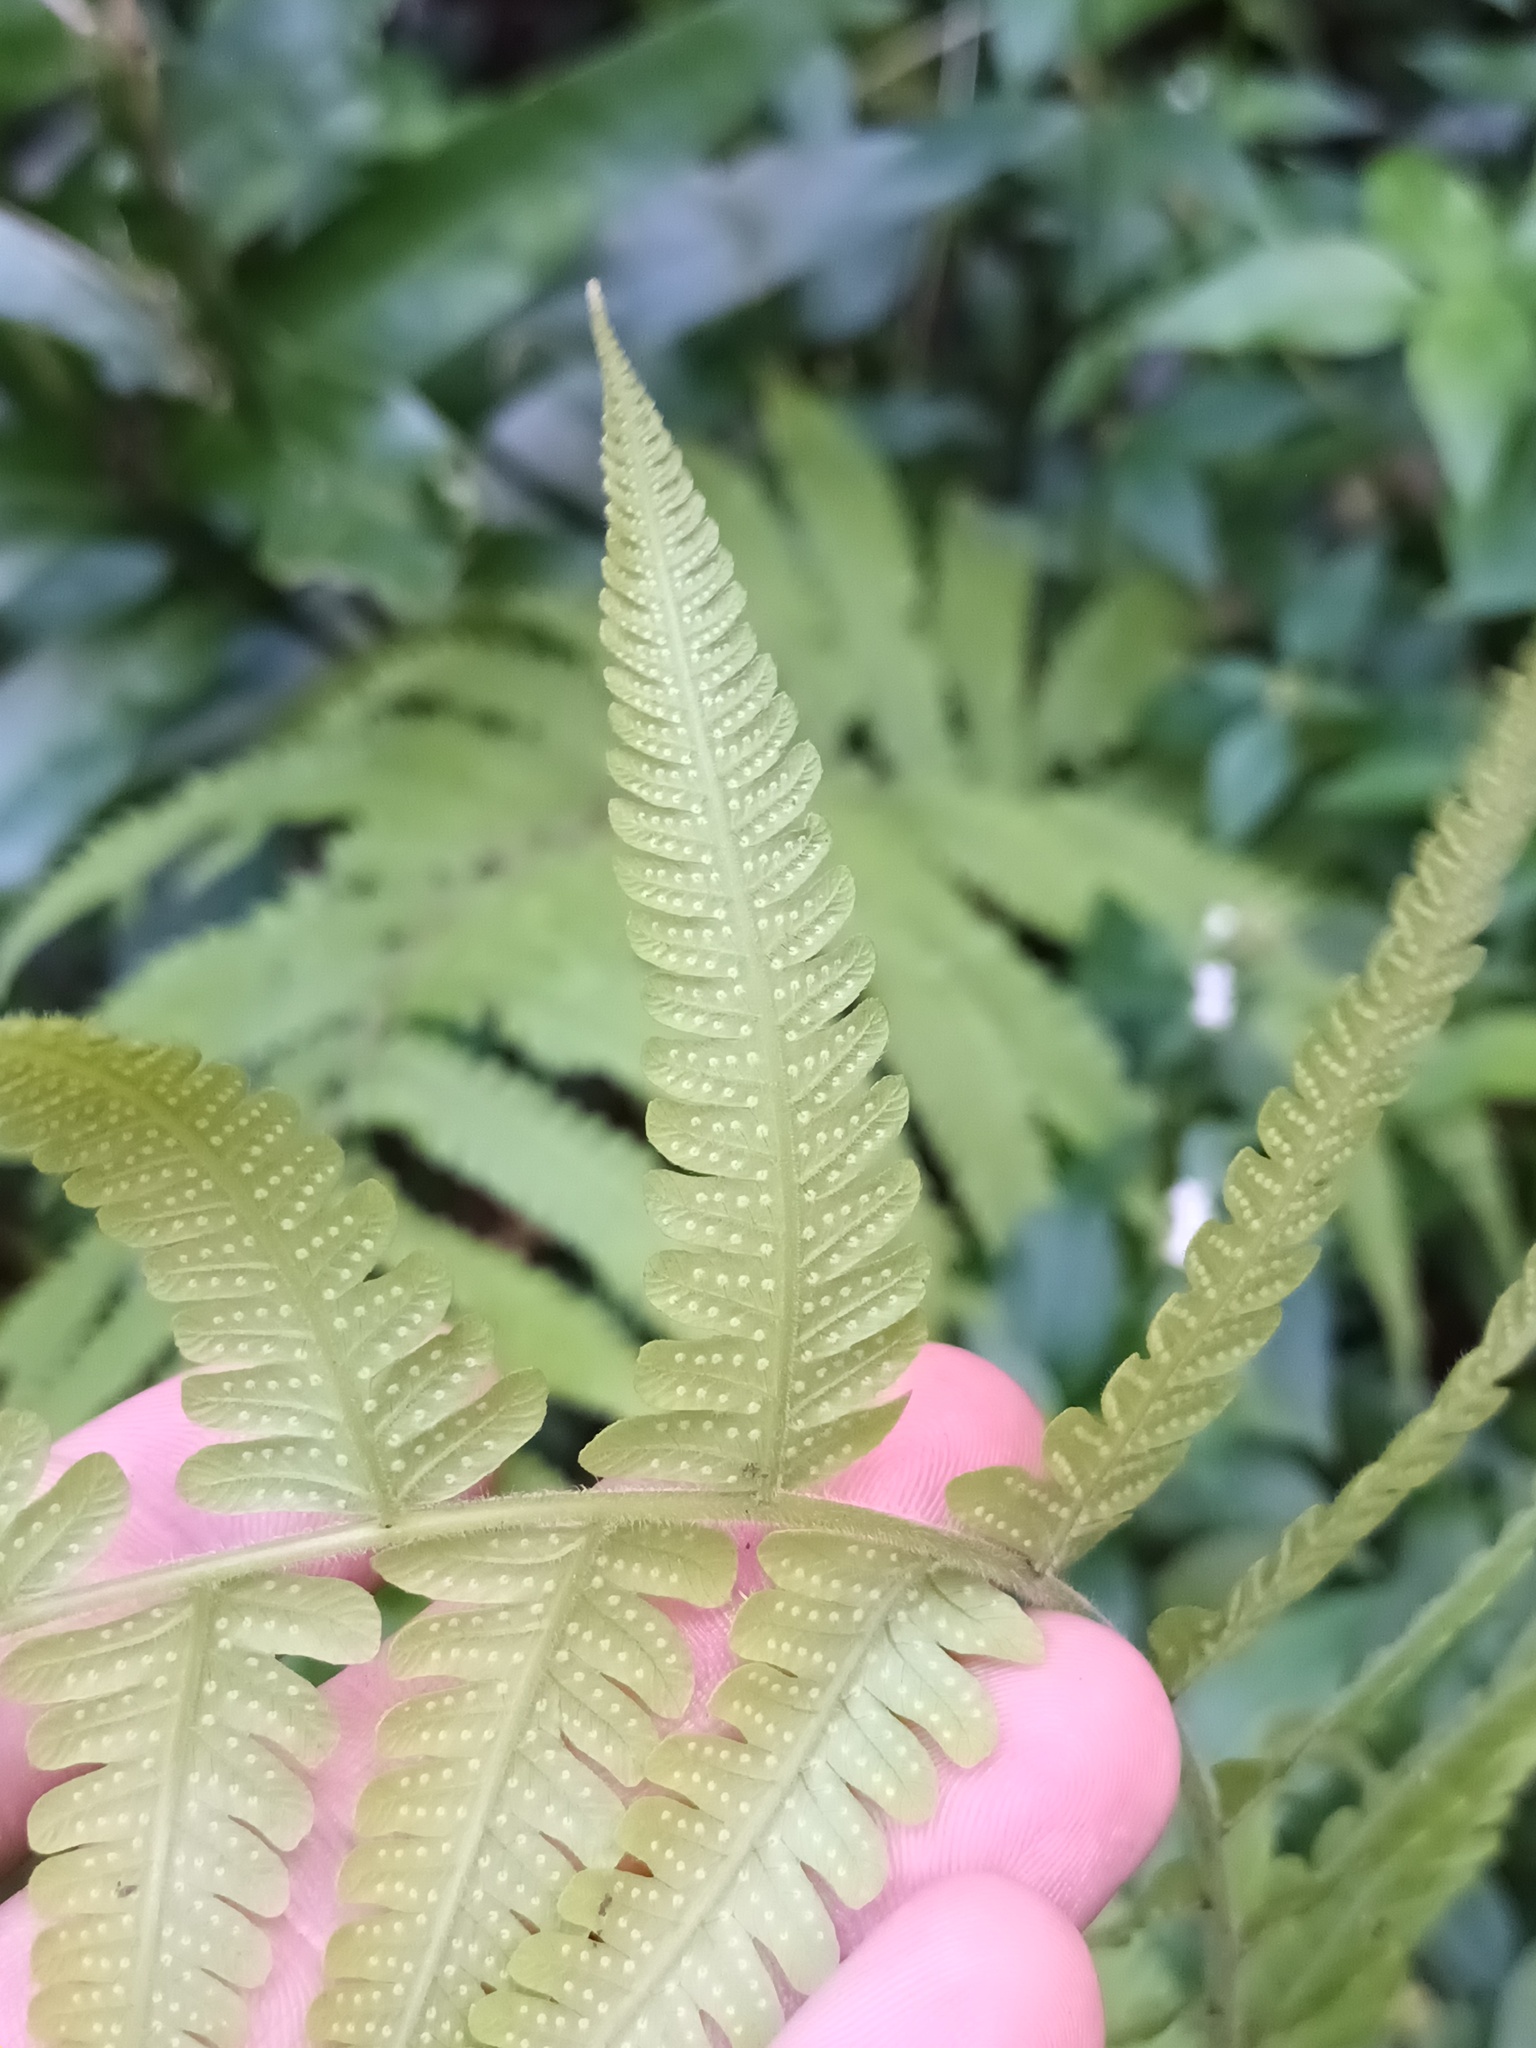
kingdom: Plantae
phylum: Tracheophyta
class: Polypodiopsida
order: Polypodiales
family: Thelypteridaceae
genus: Christella
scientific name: Christella parasitica
